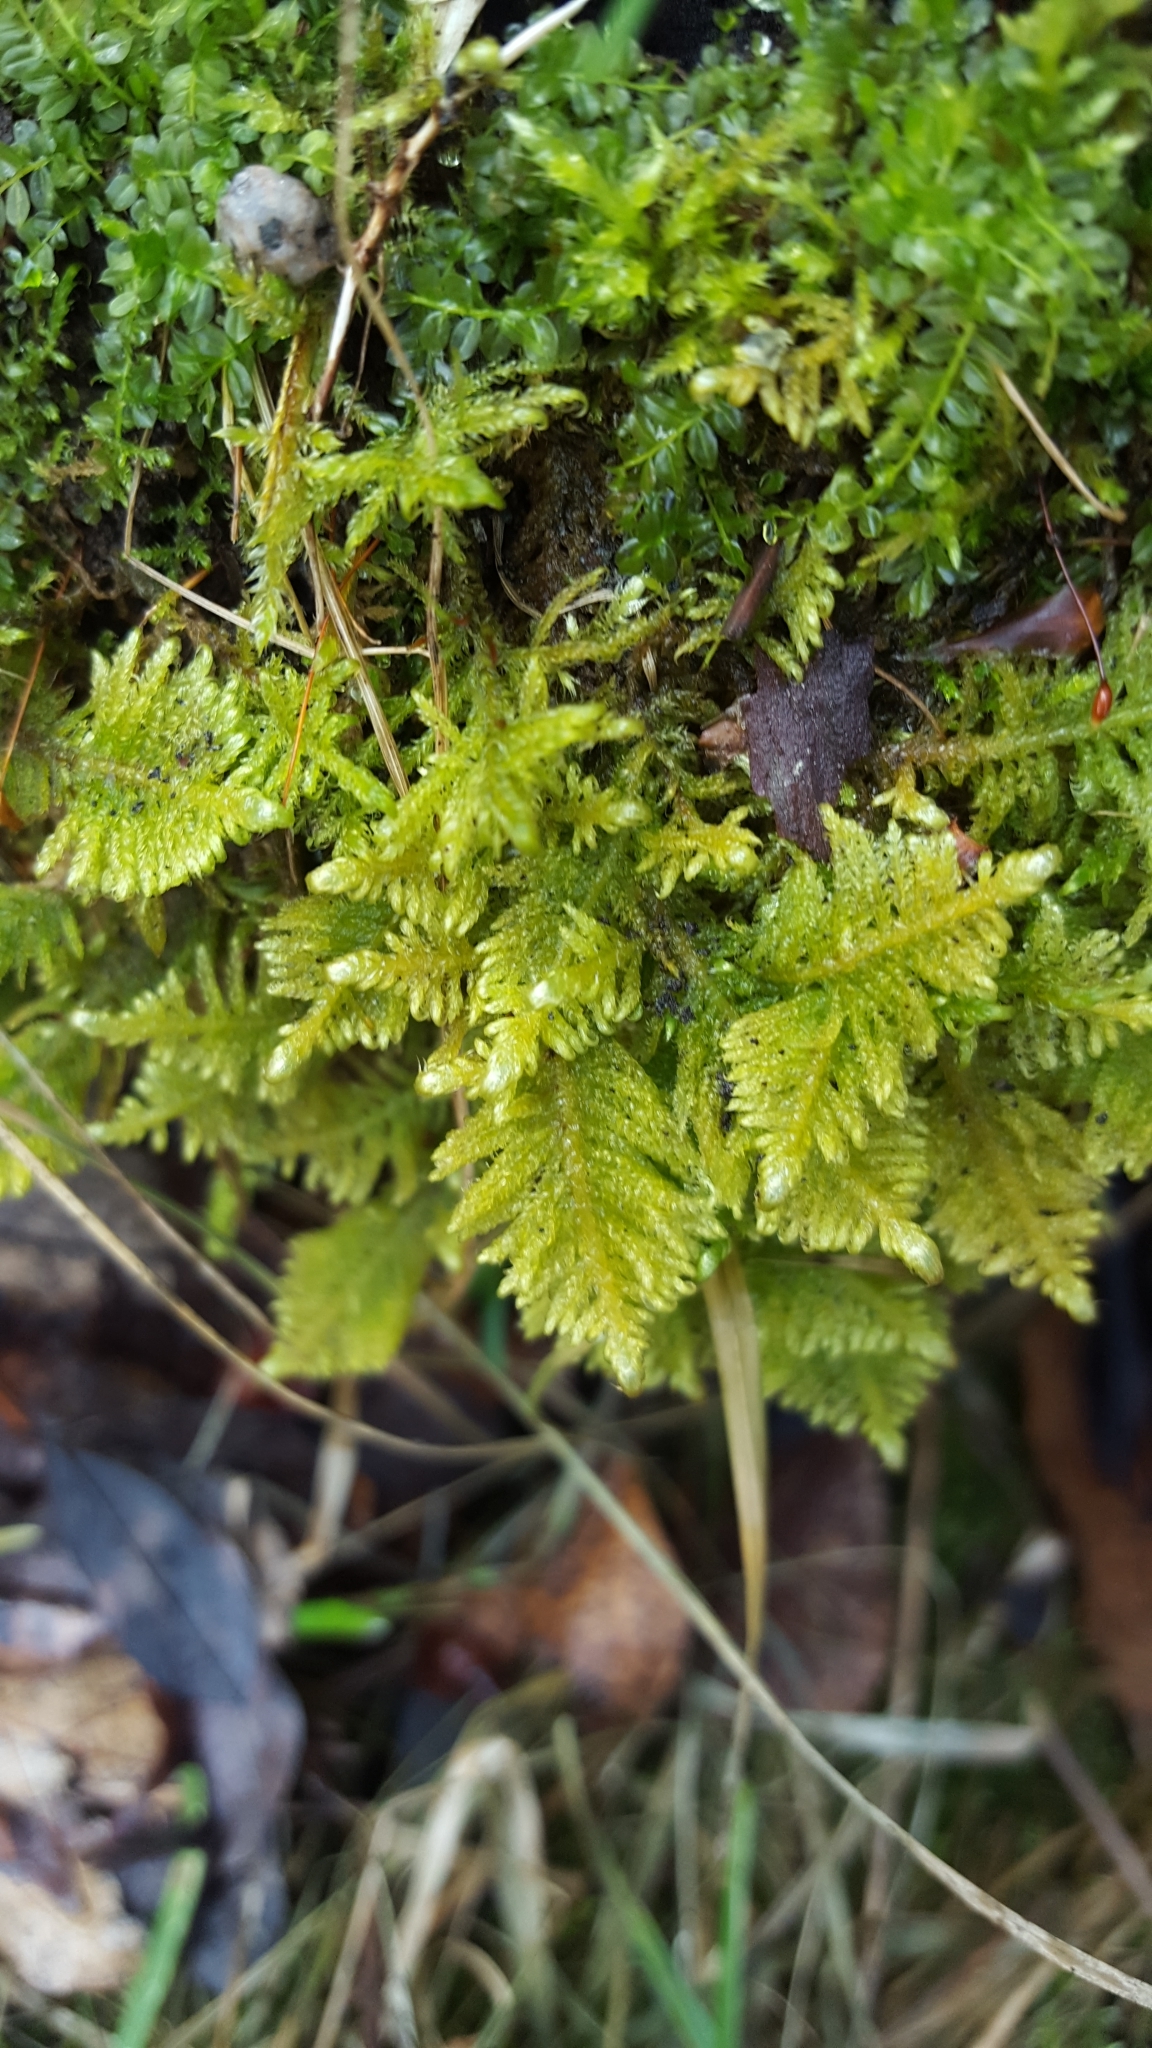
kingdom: Plantae
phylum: Bryophyta
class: Bryopsida
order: Hypnales
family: Pylaisiaceae
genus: Ptilium
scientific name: Ptilium crista-castrensis
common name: Knight's plume moss
